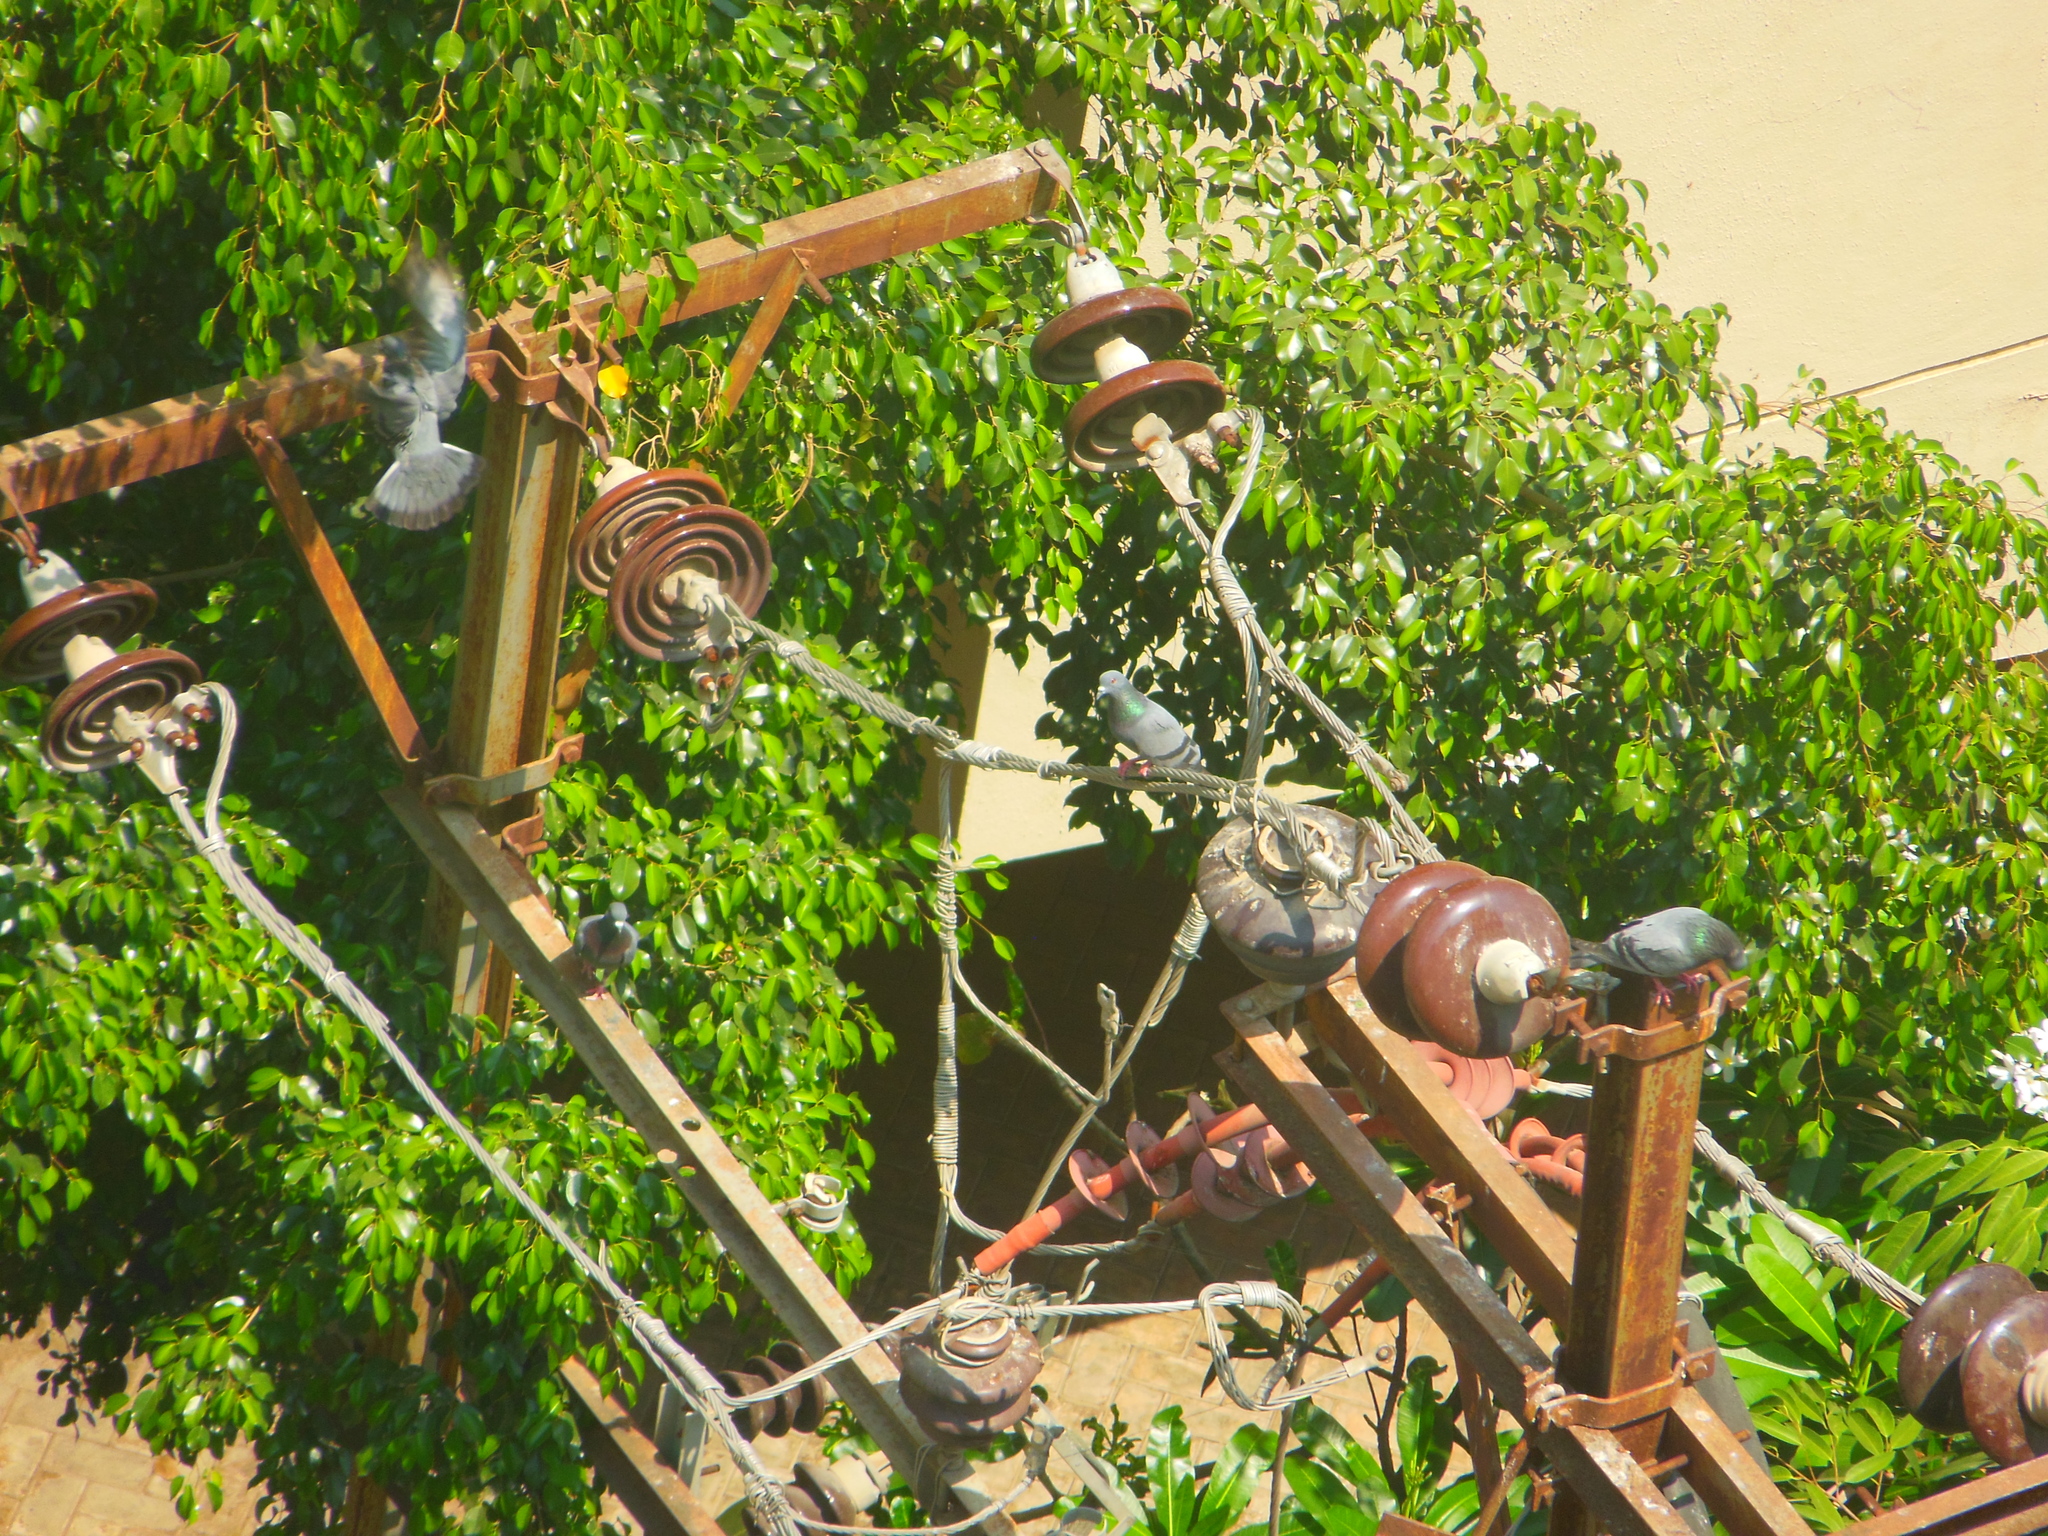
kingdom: Animalia
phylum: Chordata
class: Aves
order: Columbiformes
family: Columbidae
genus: Columba
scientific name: Columba livia
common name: Rock pigeon
